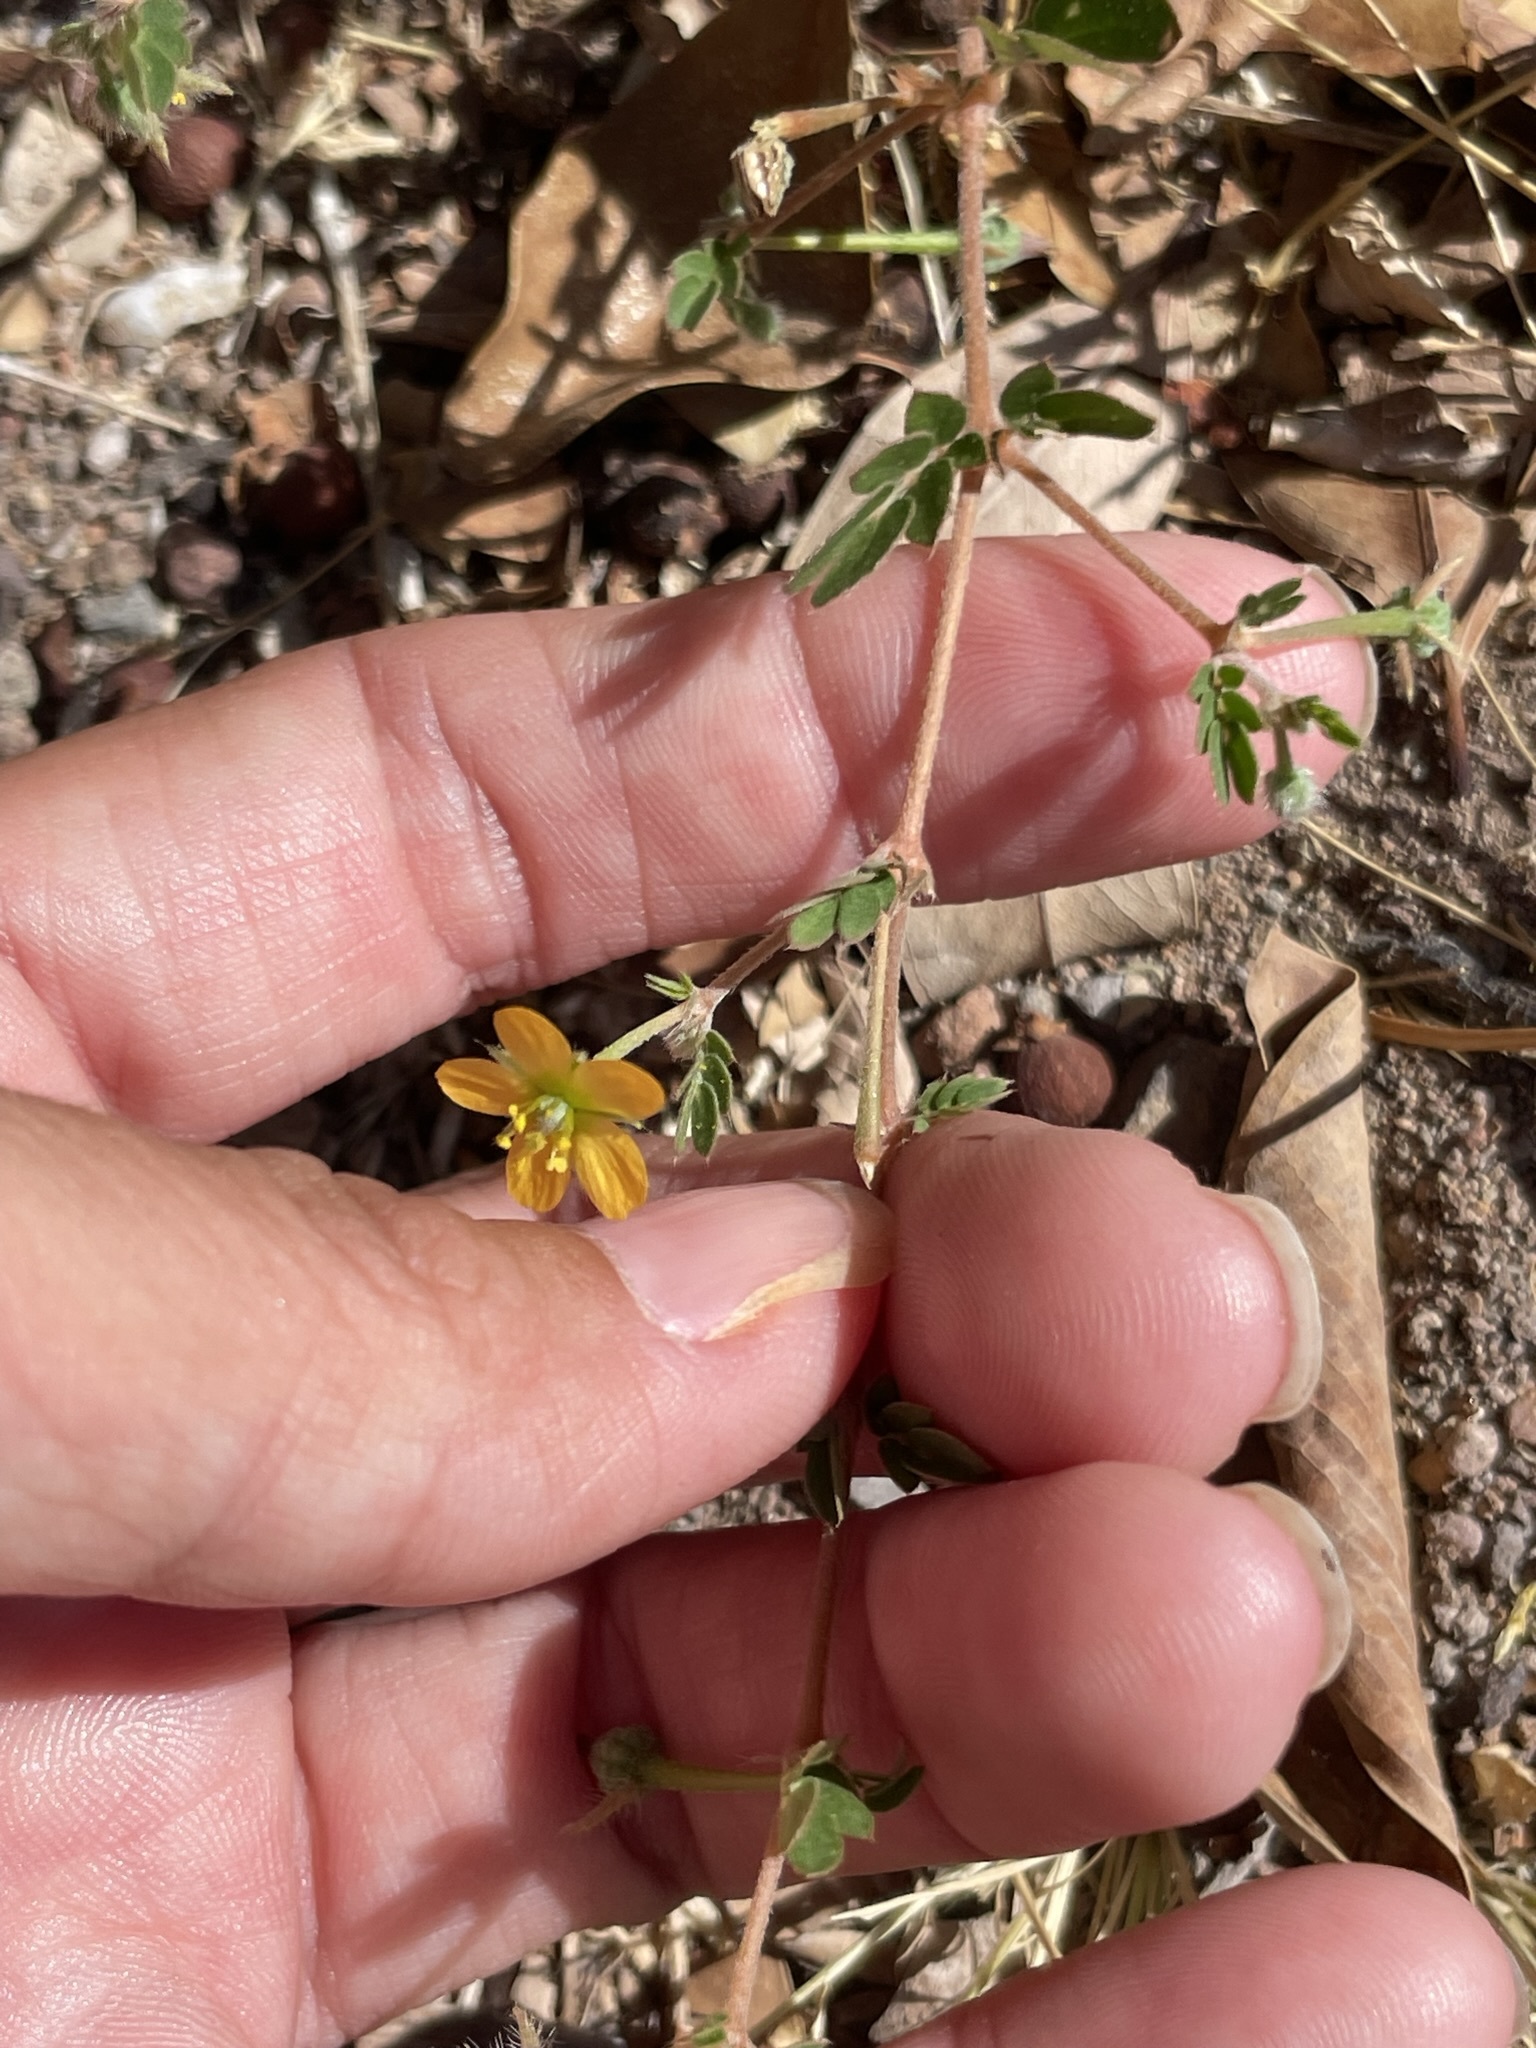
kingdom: Plantae
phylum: Tracheophyta
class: Magnoliopsida
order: Zygophyllales
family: Zygophyllaceae
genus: Kallstroemia
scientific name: Kallstroemia californica
